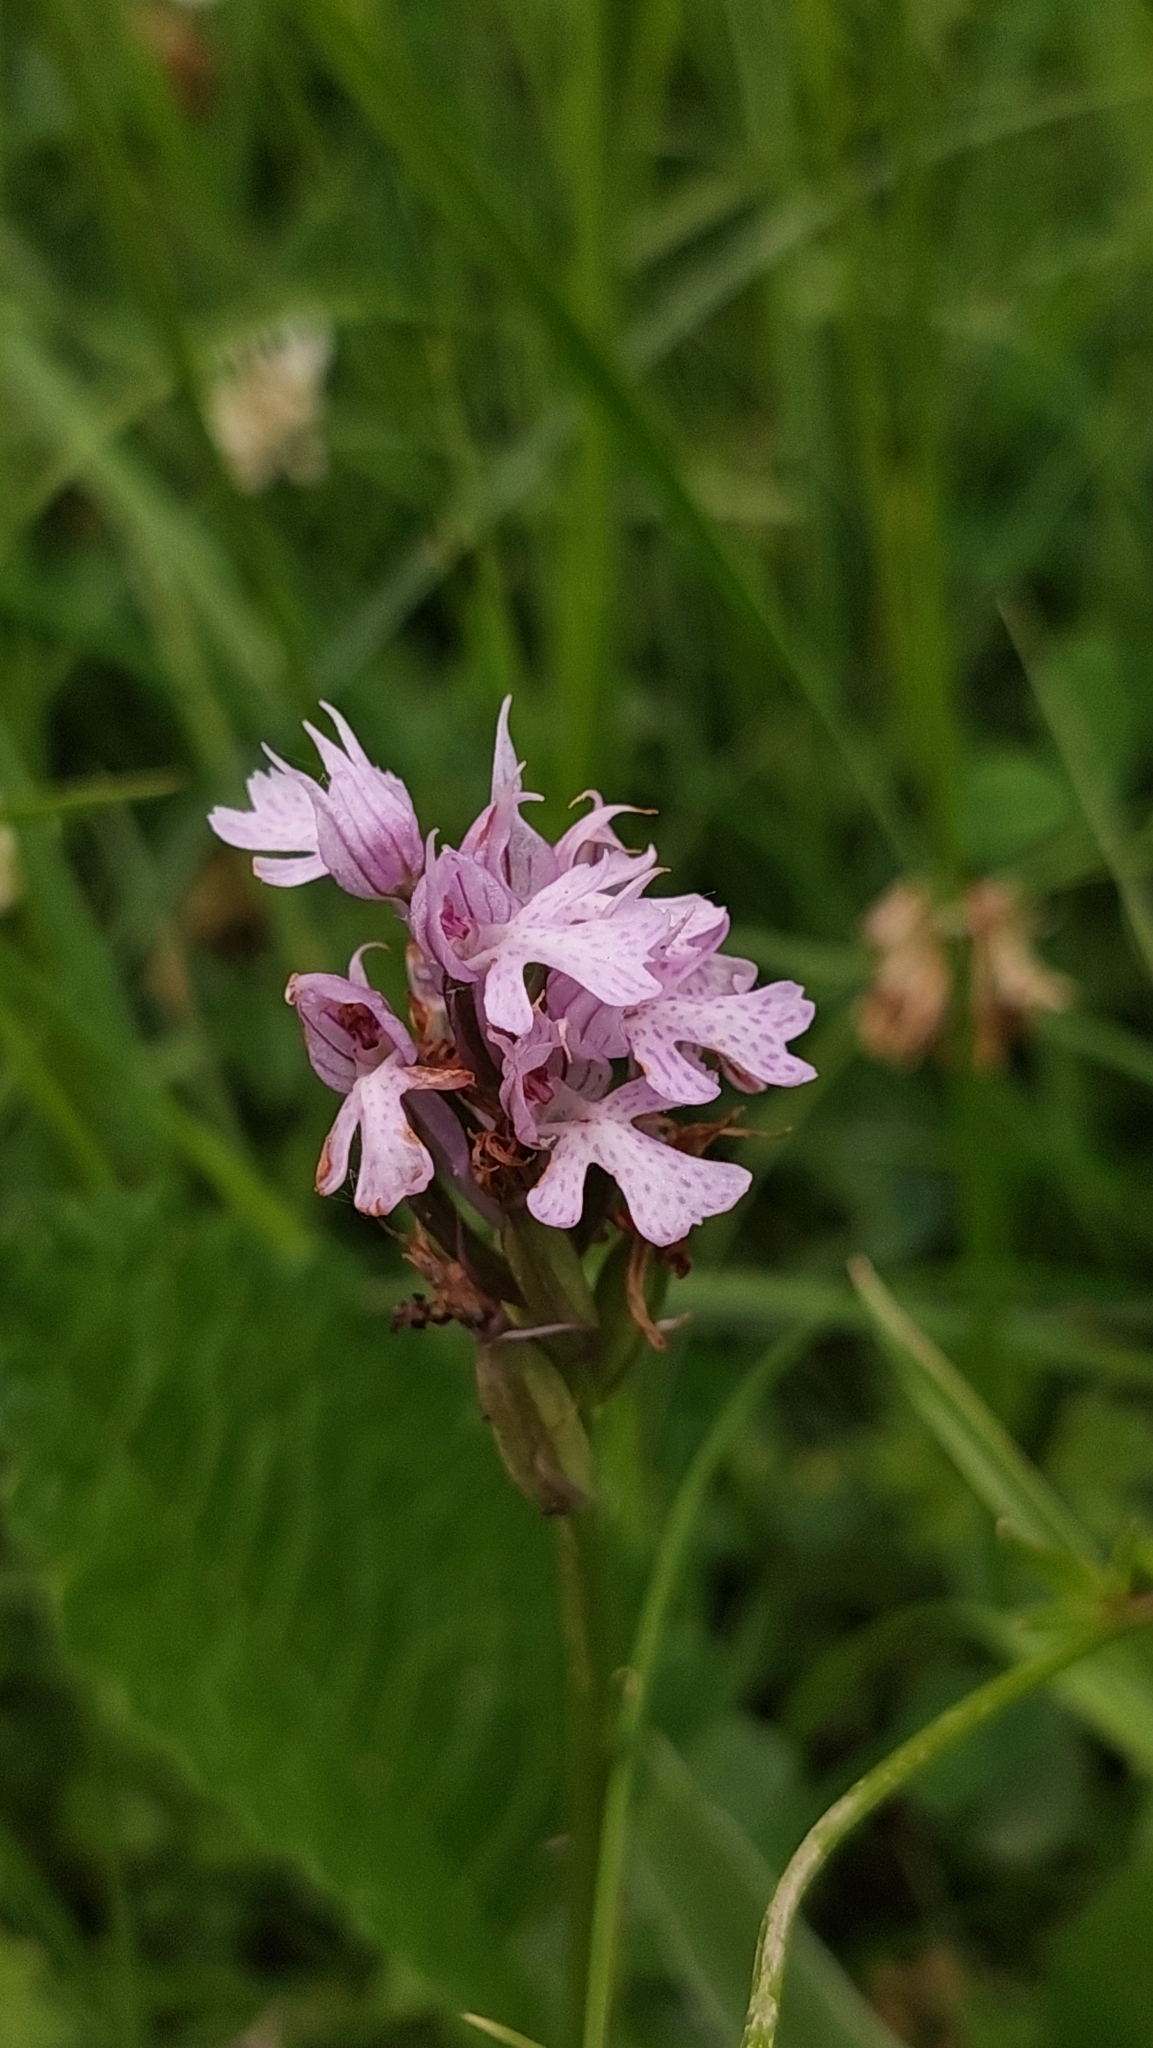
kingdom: Plantae
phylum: Tracheophyta
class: Liliopsida
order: Asparagales
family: Orchidaceae
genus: Neotinea
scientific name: Neotinea tridentata
